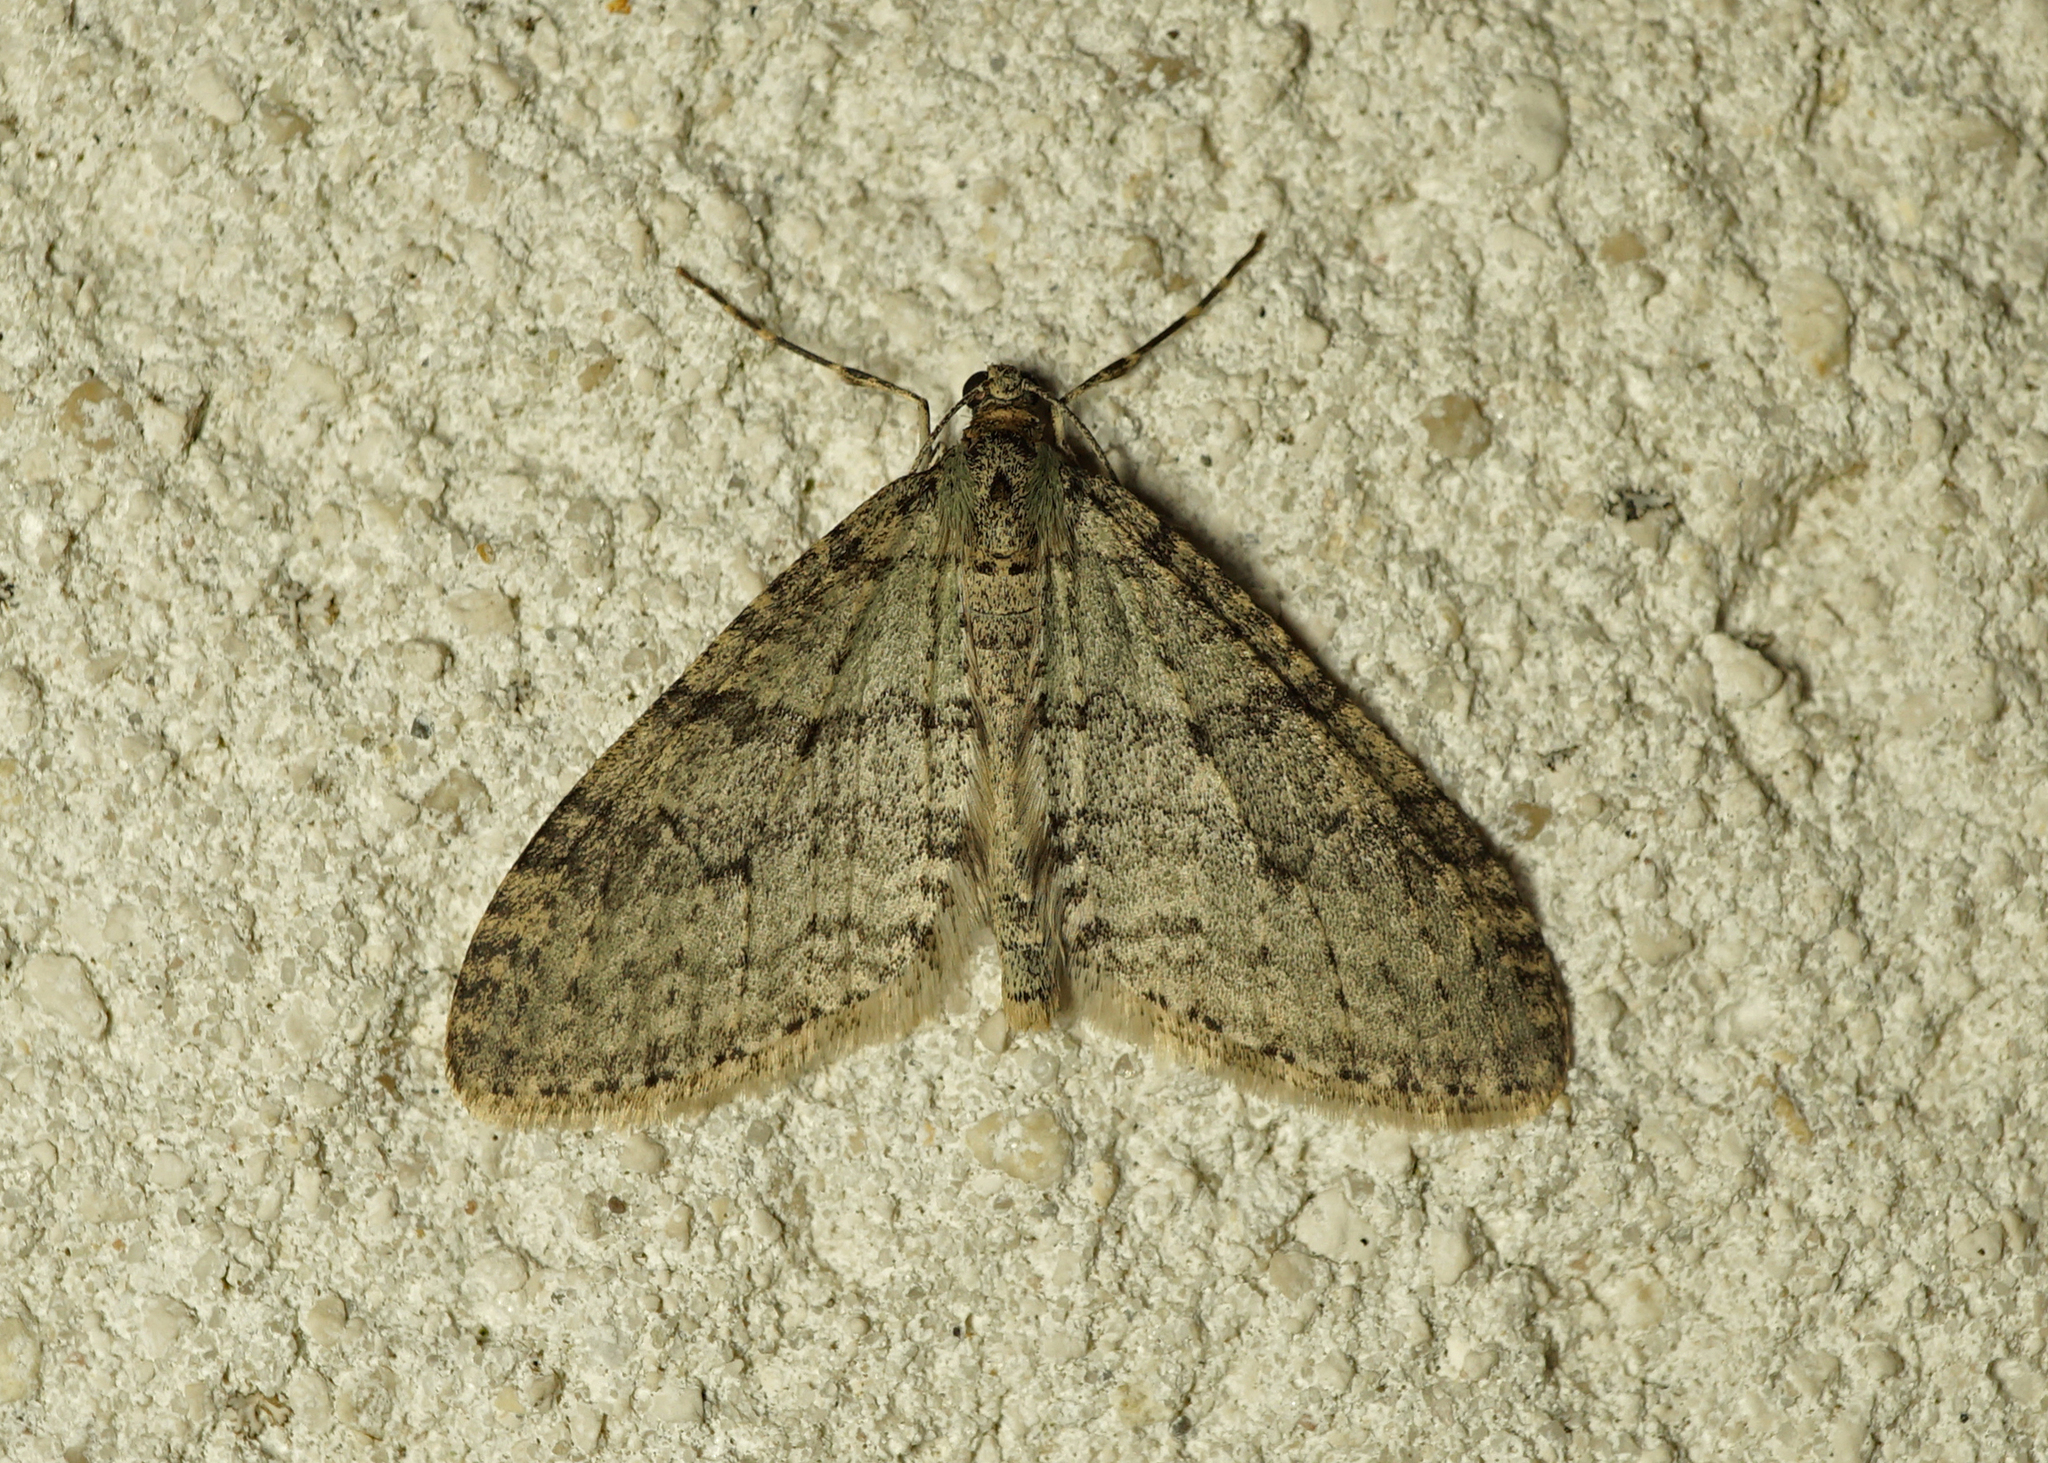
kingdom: Animalia
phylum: Arthropoda
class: Insecta
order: Lepidoptera
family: Geometridae
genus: Trichopteryx
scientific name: Trichopteryx carpinata
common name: Early tooth-striped
